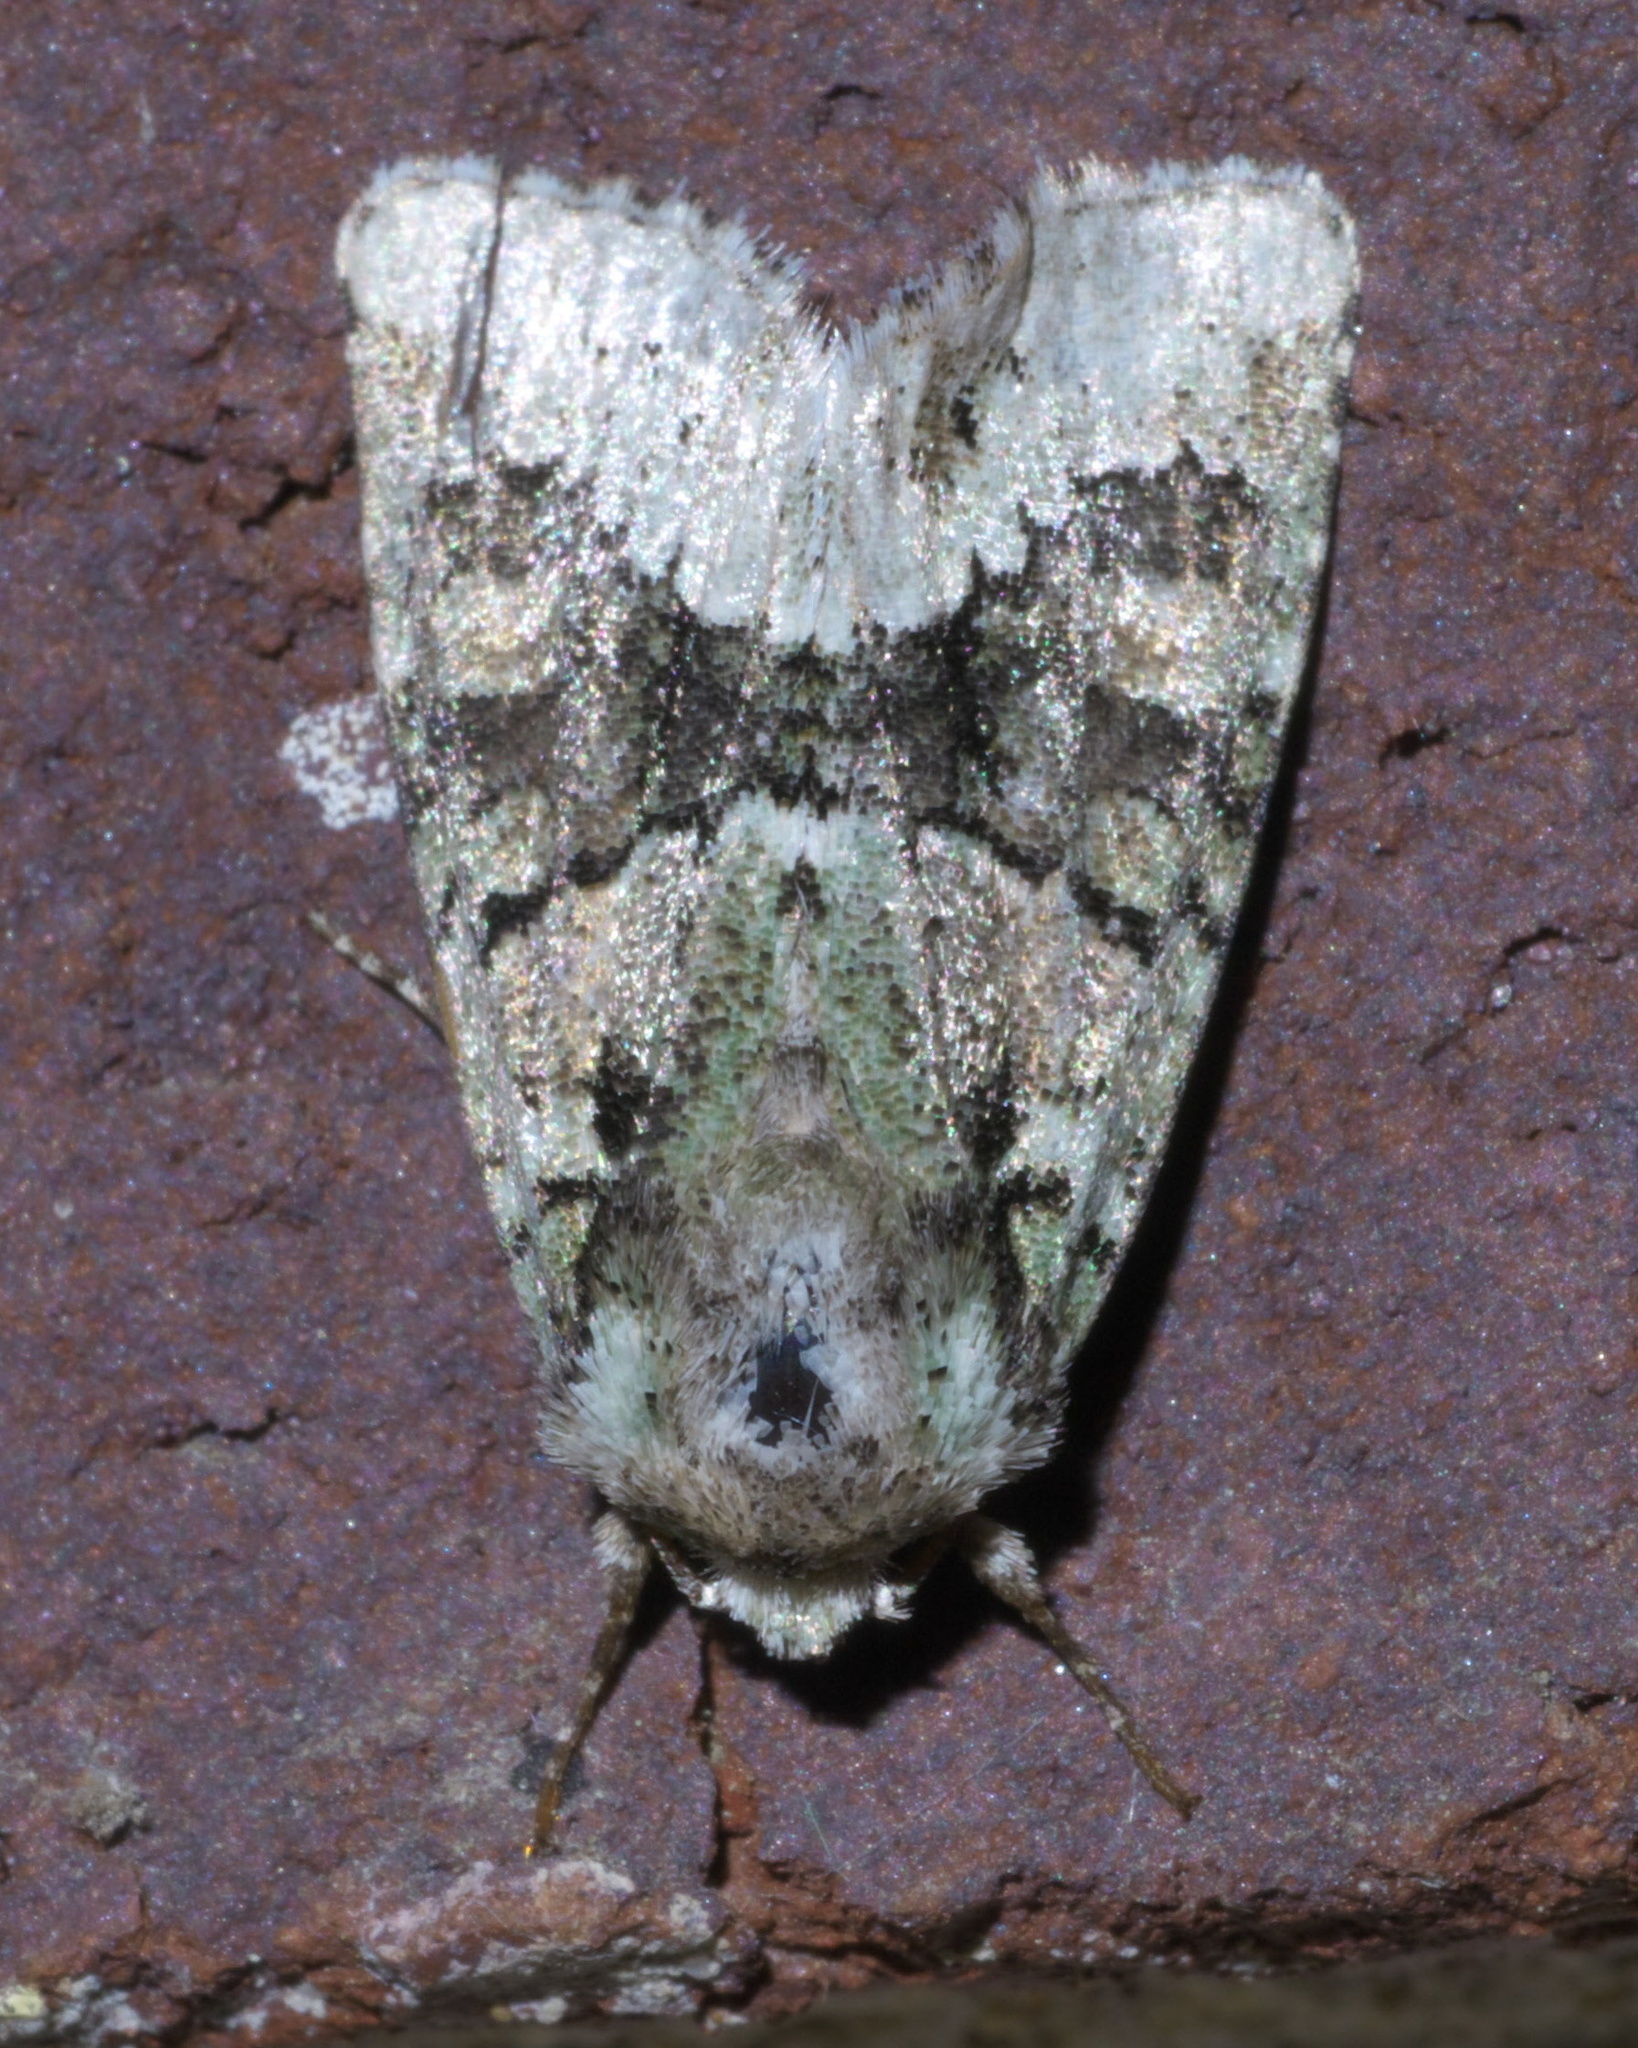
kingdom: Animalia
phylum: Arthropoda
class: Insecta
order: Lepidoptera
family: Noctuidae
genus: Lacinipolia
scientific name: Lacinipolia explicata
